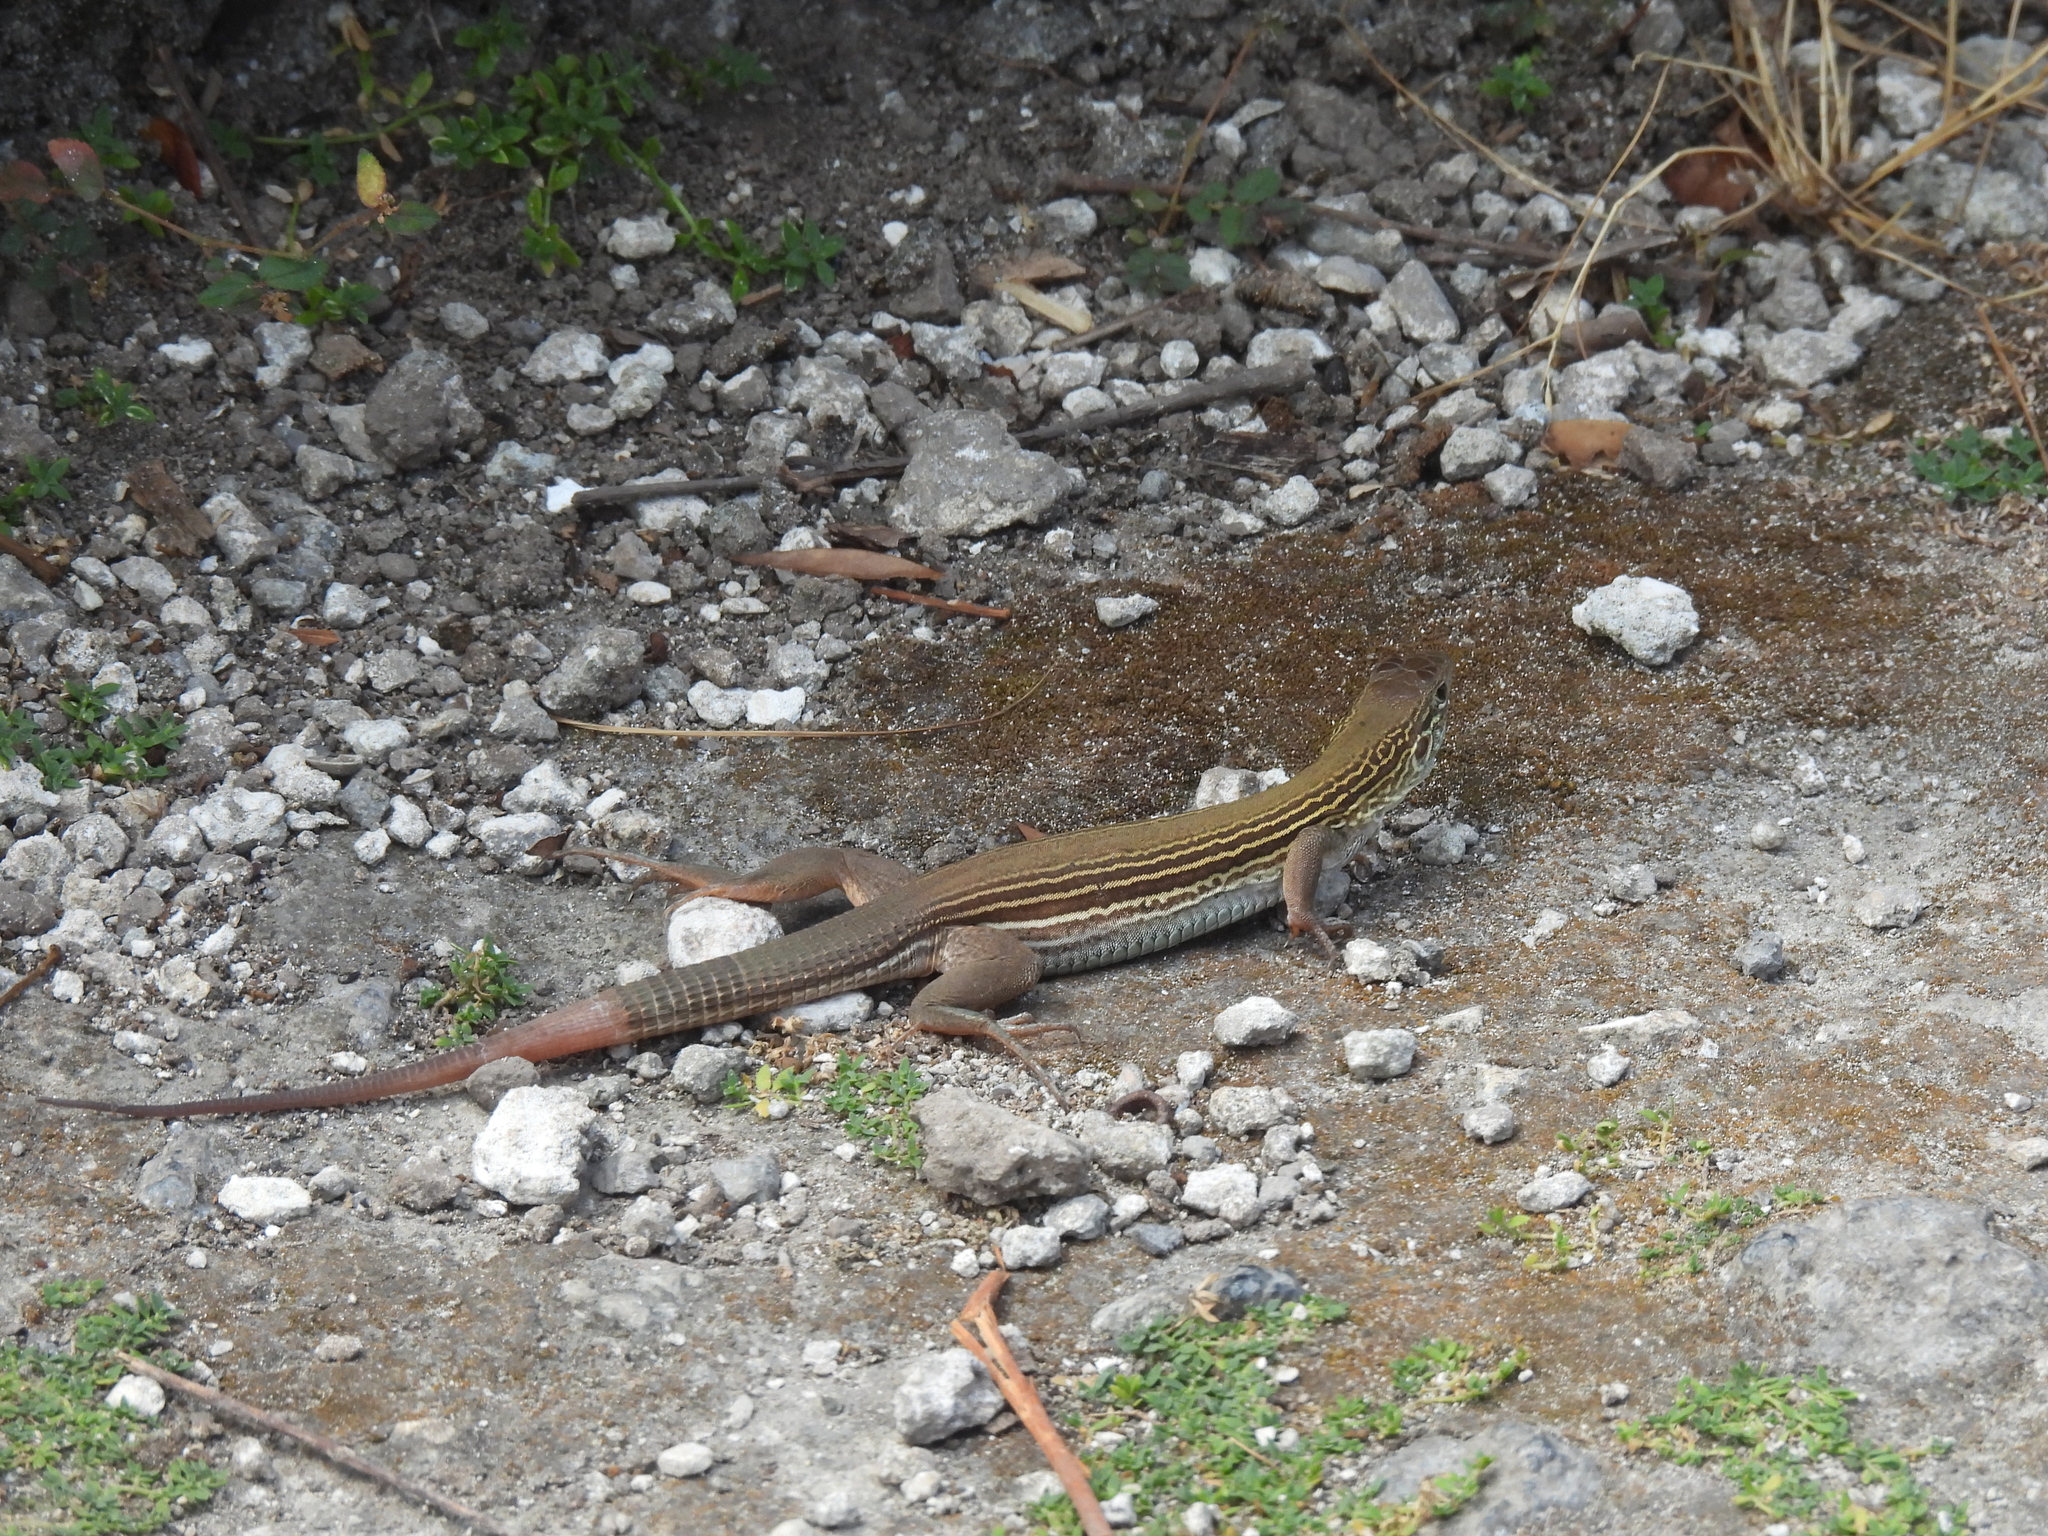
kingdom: Animalia
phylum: Chordata
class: Squamata
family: Teiidae
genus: Aspidoscelis
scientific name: Aspidoscelis cozumela
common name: Cozumel racerunner
